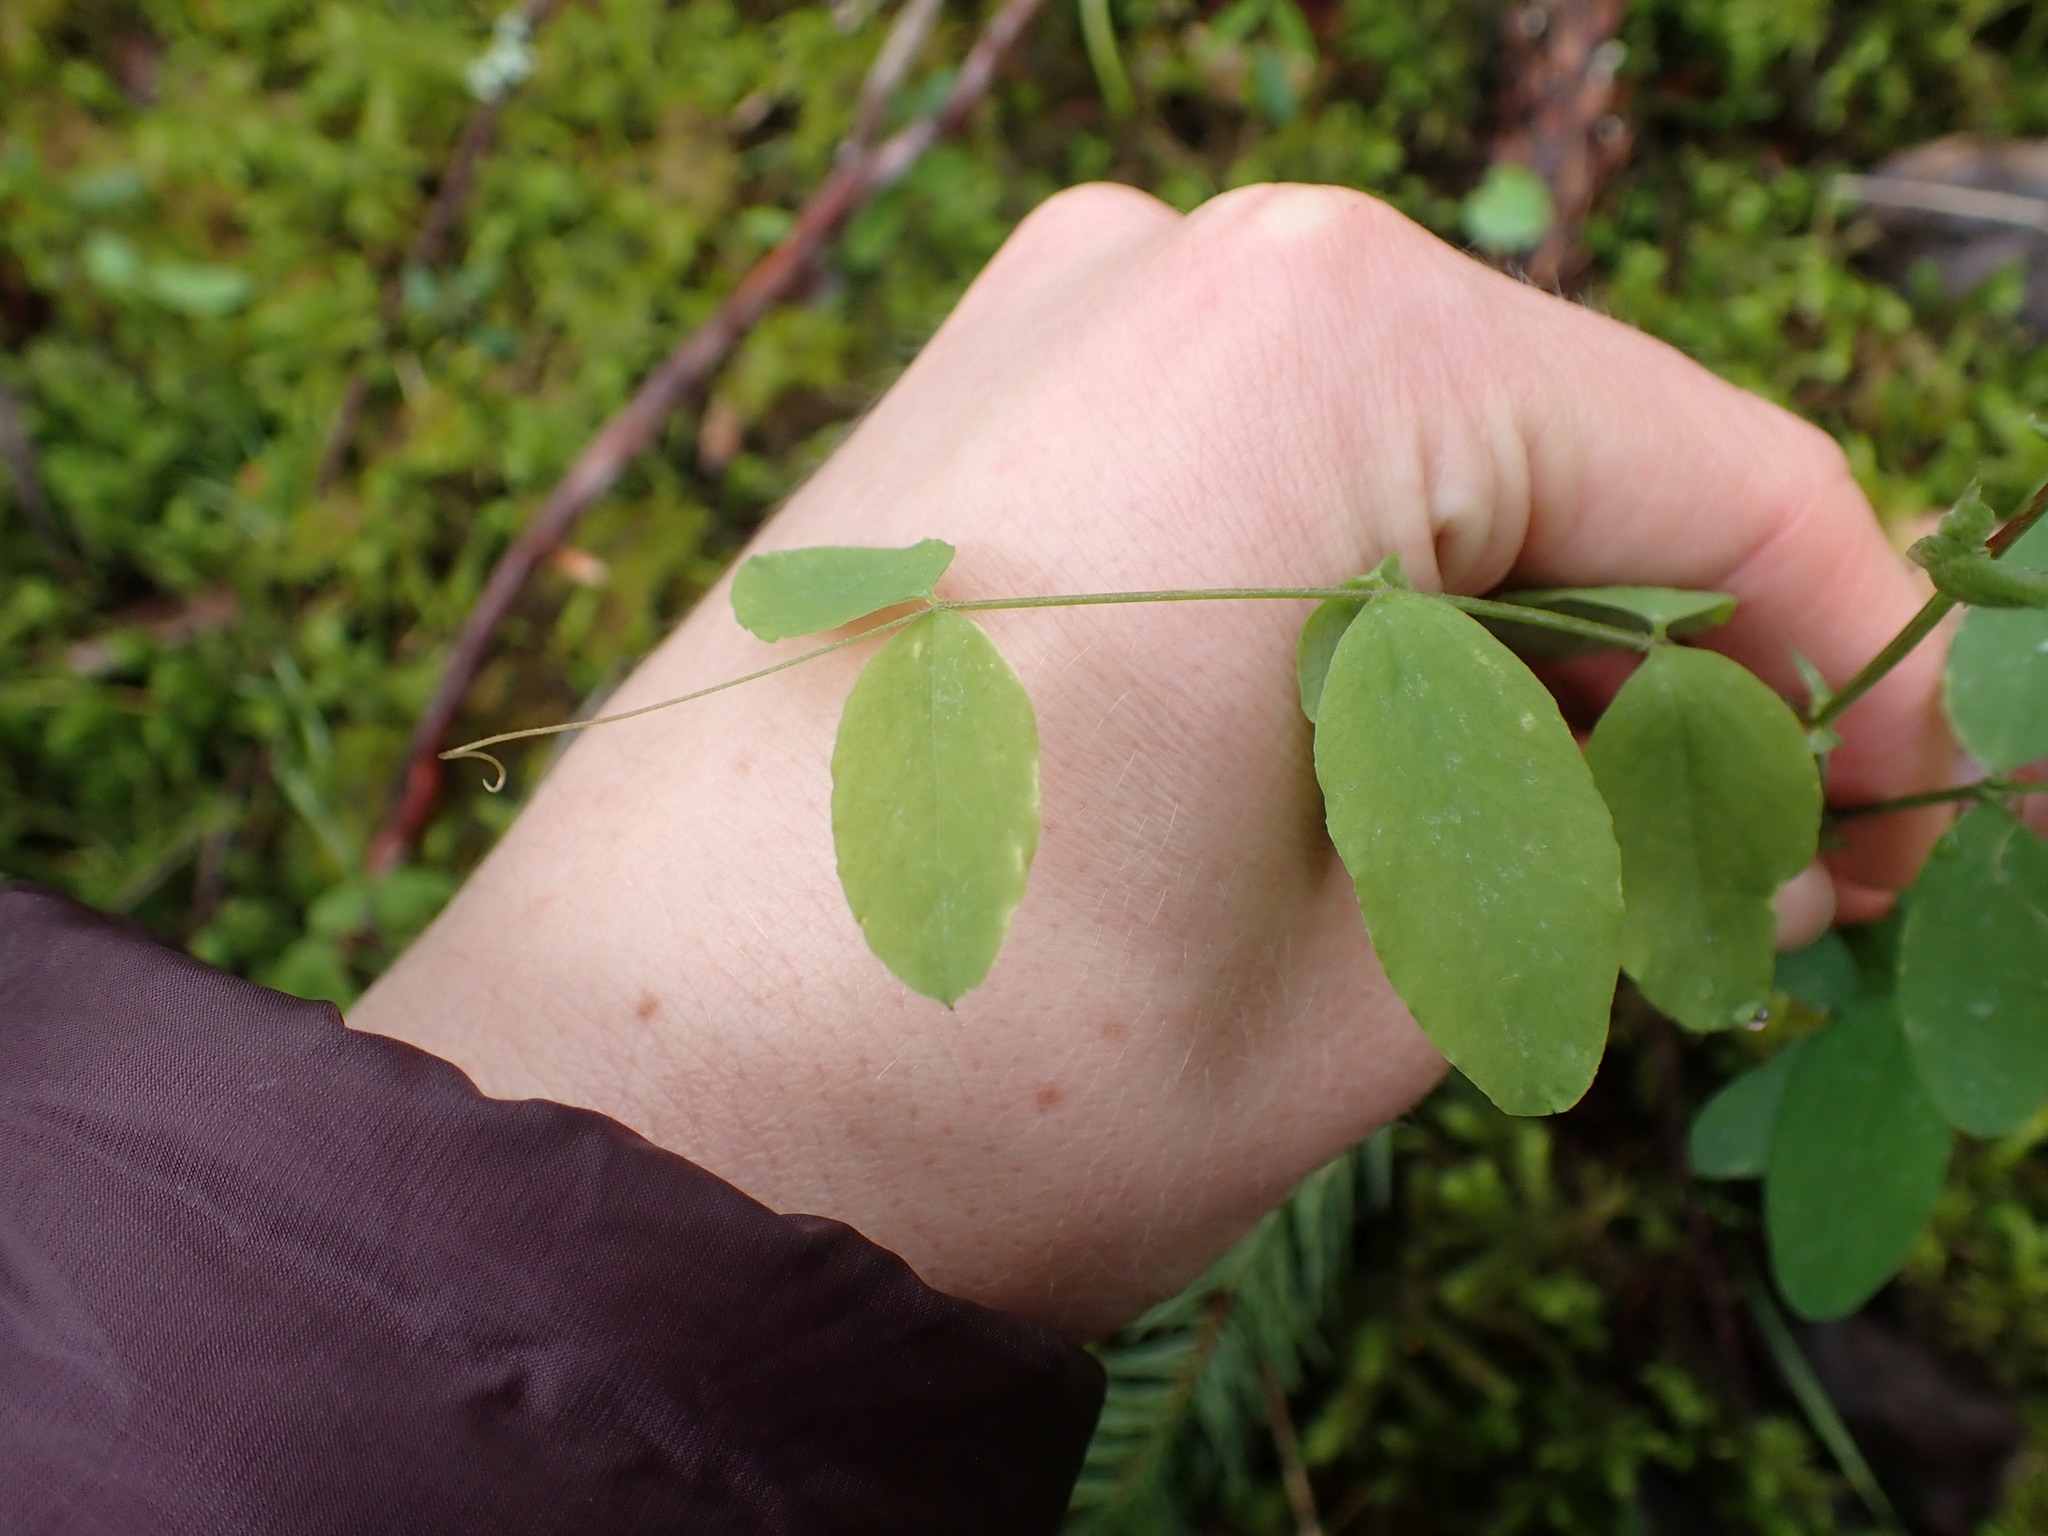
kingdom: Plantae
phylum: Tracheophyta
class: Magnoliopsida
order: Fabales
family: Fabaceae
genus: Lathyrus
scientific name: Lathyrus nevadensis
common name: Sierra nevada peavine
